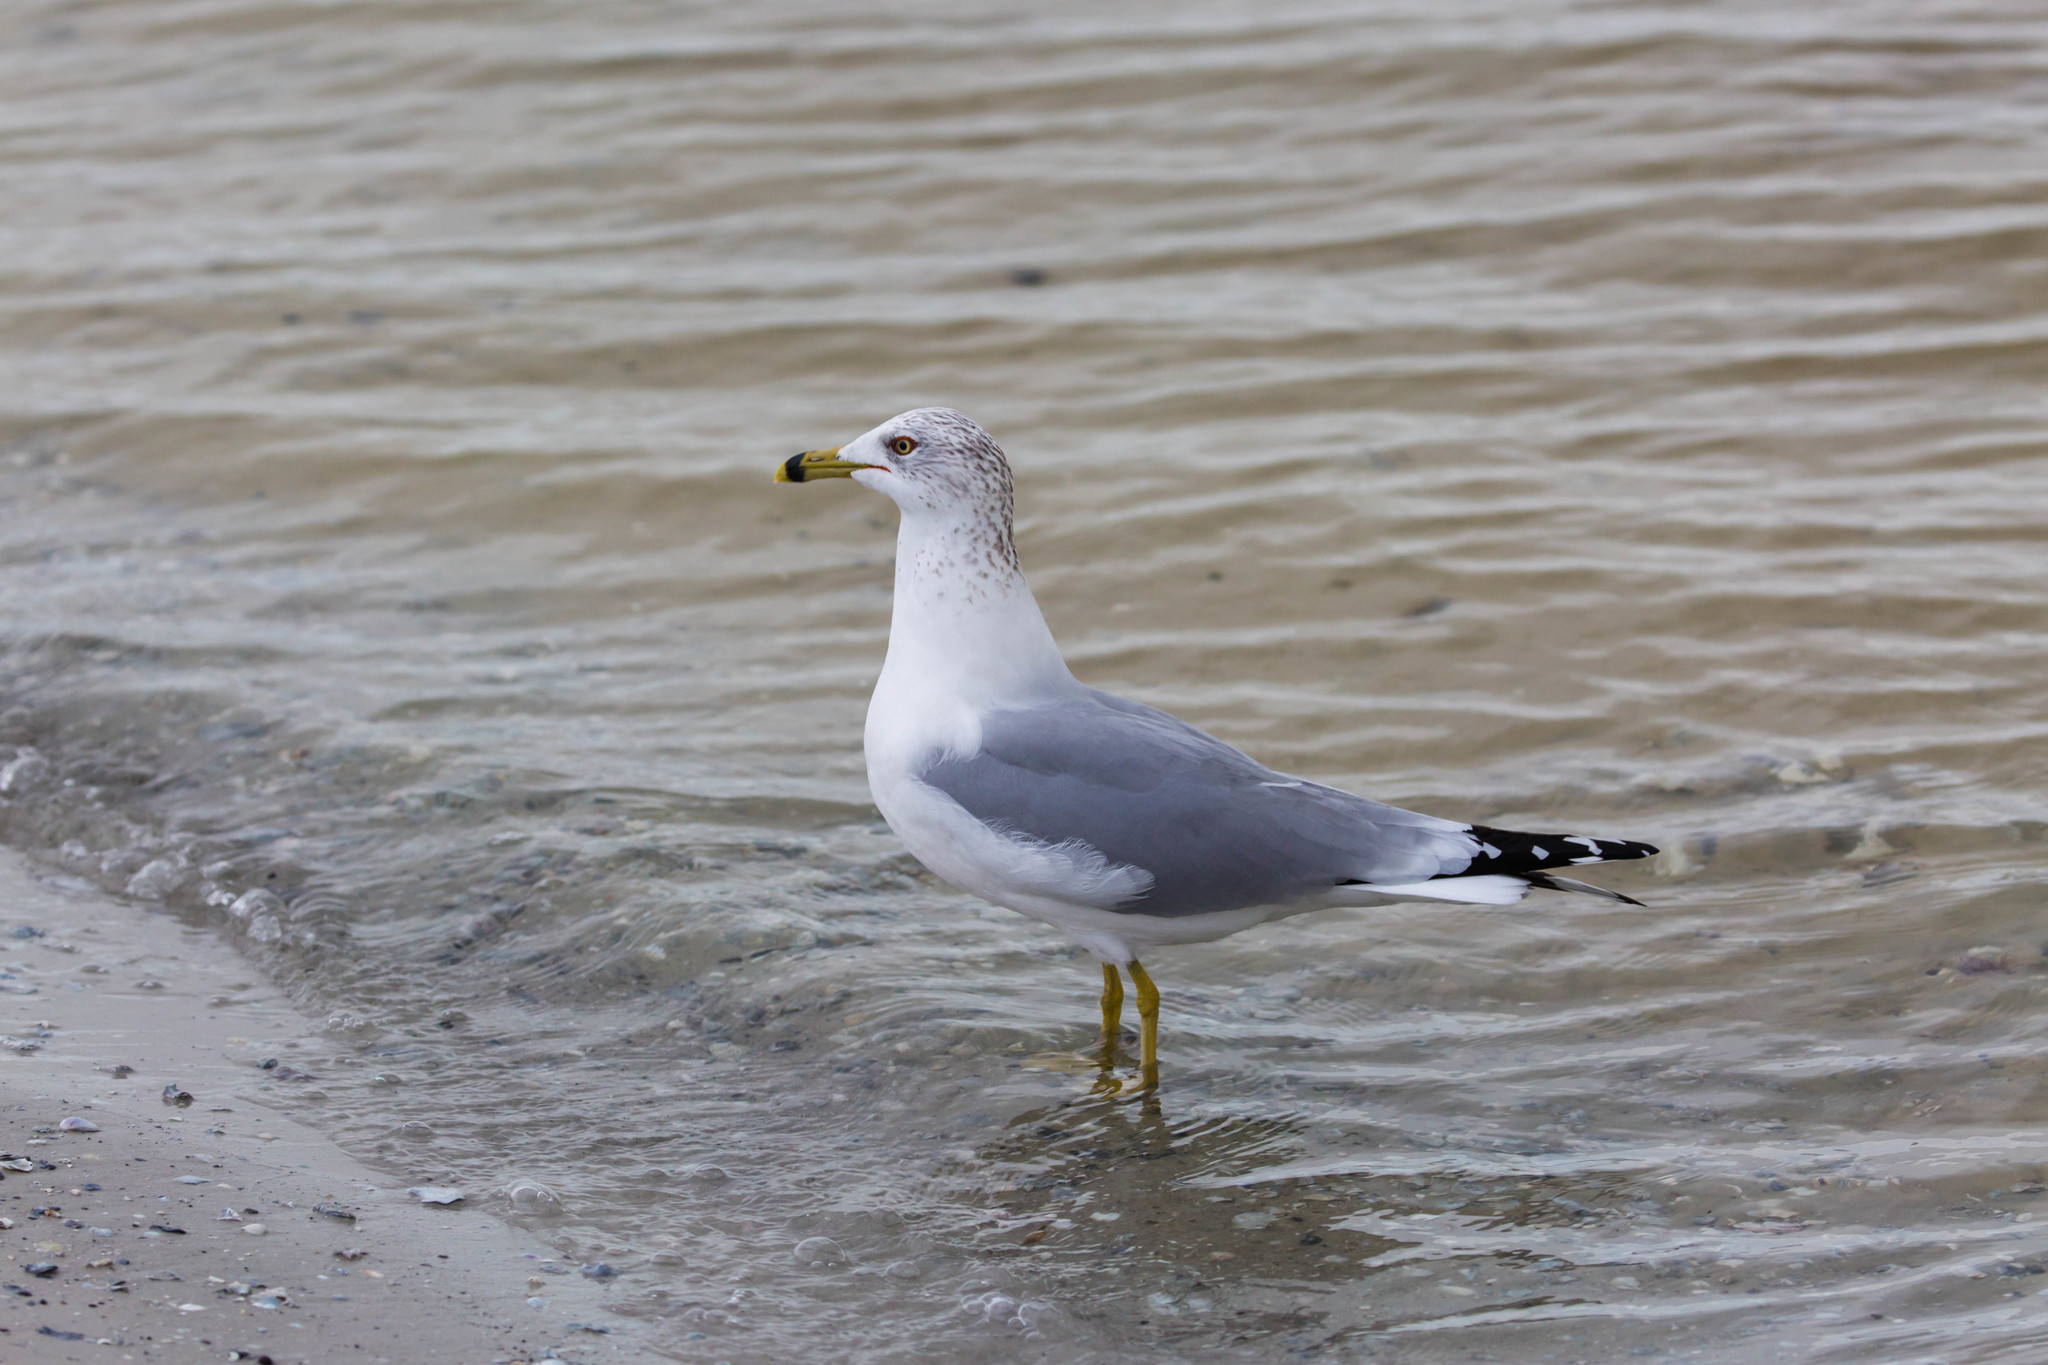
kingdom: Animalia
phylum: Chordata
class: Aves
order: Charadriiformes
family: Laridae
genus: Larus
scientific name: Larus delawarensis
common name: Ring-billed gull
